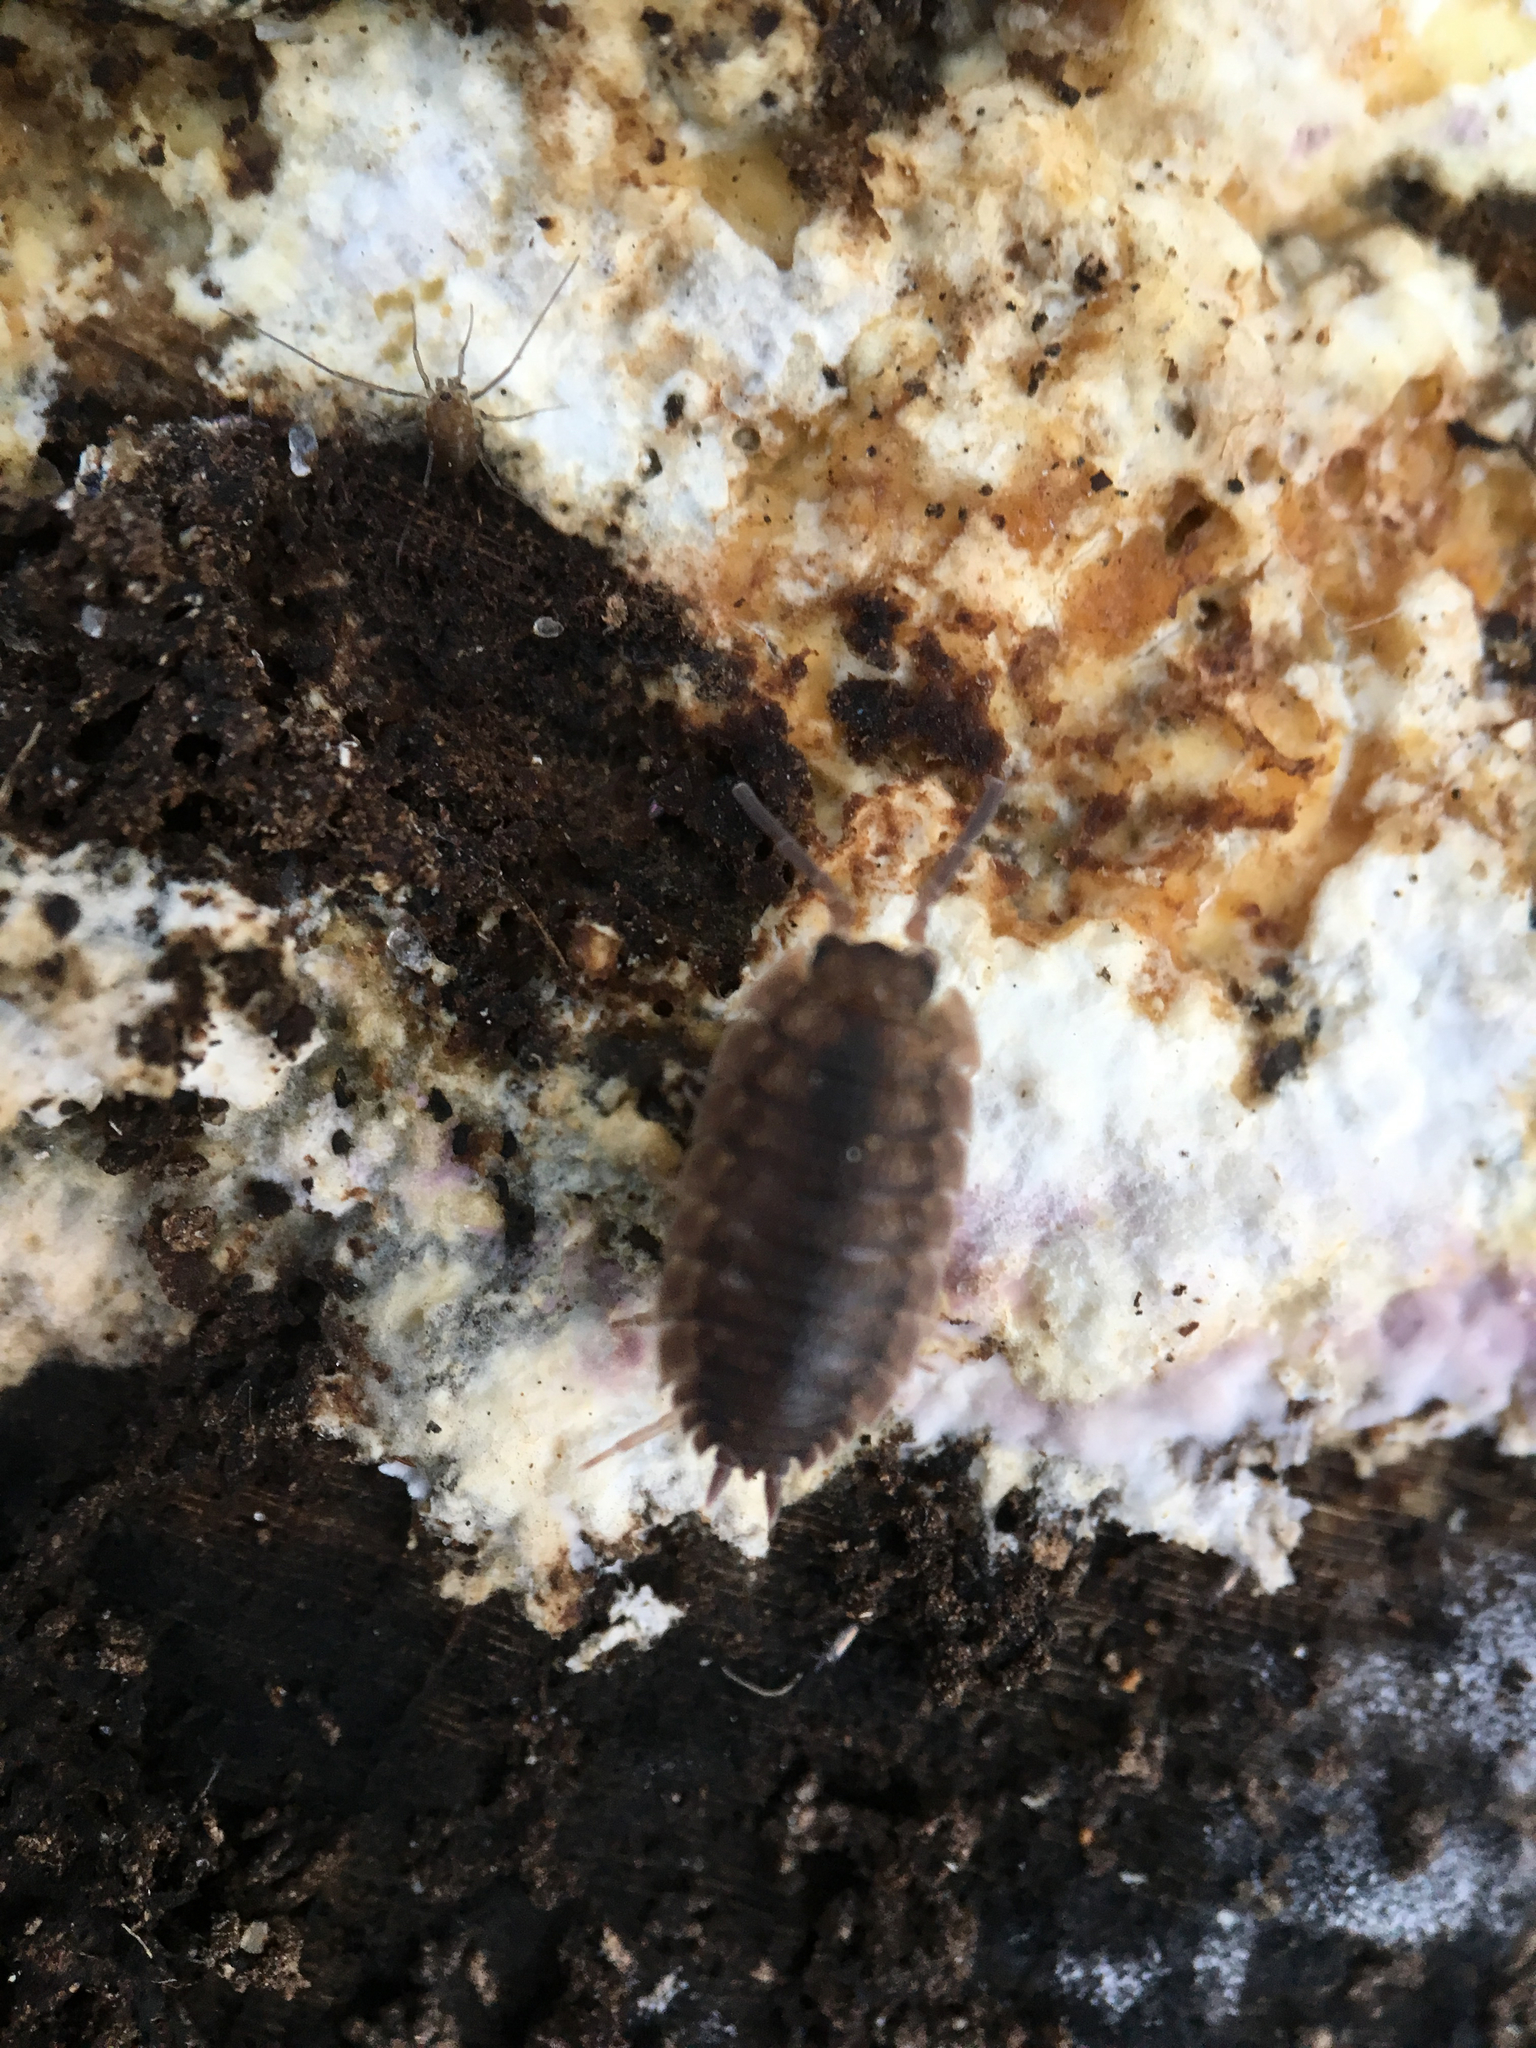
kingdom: Animalia
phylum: Arthropoda
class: Malacostraca
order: Isopoda
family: Porcellionidae
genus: Porcellio
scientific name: Porcellio scaber
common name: Common rough woodlouse
